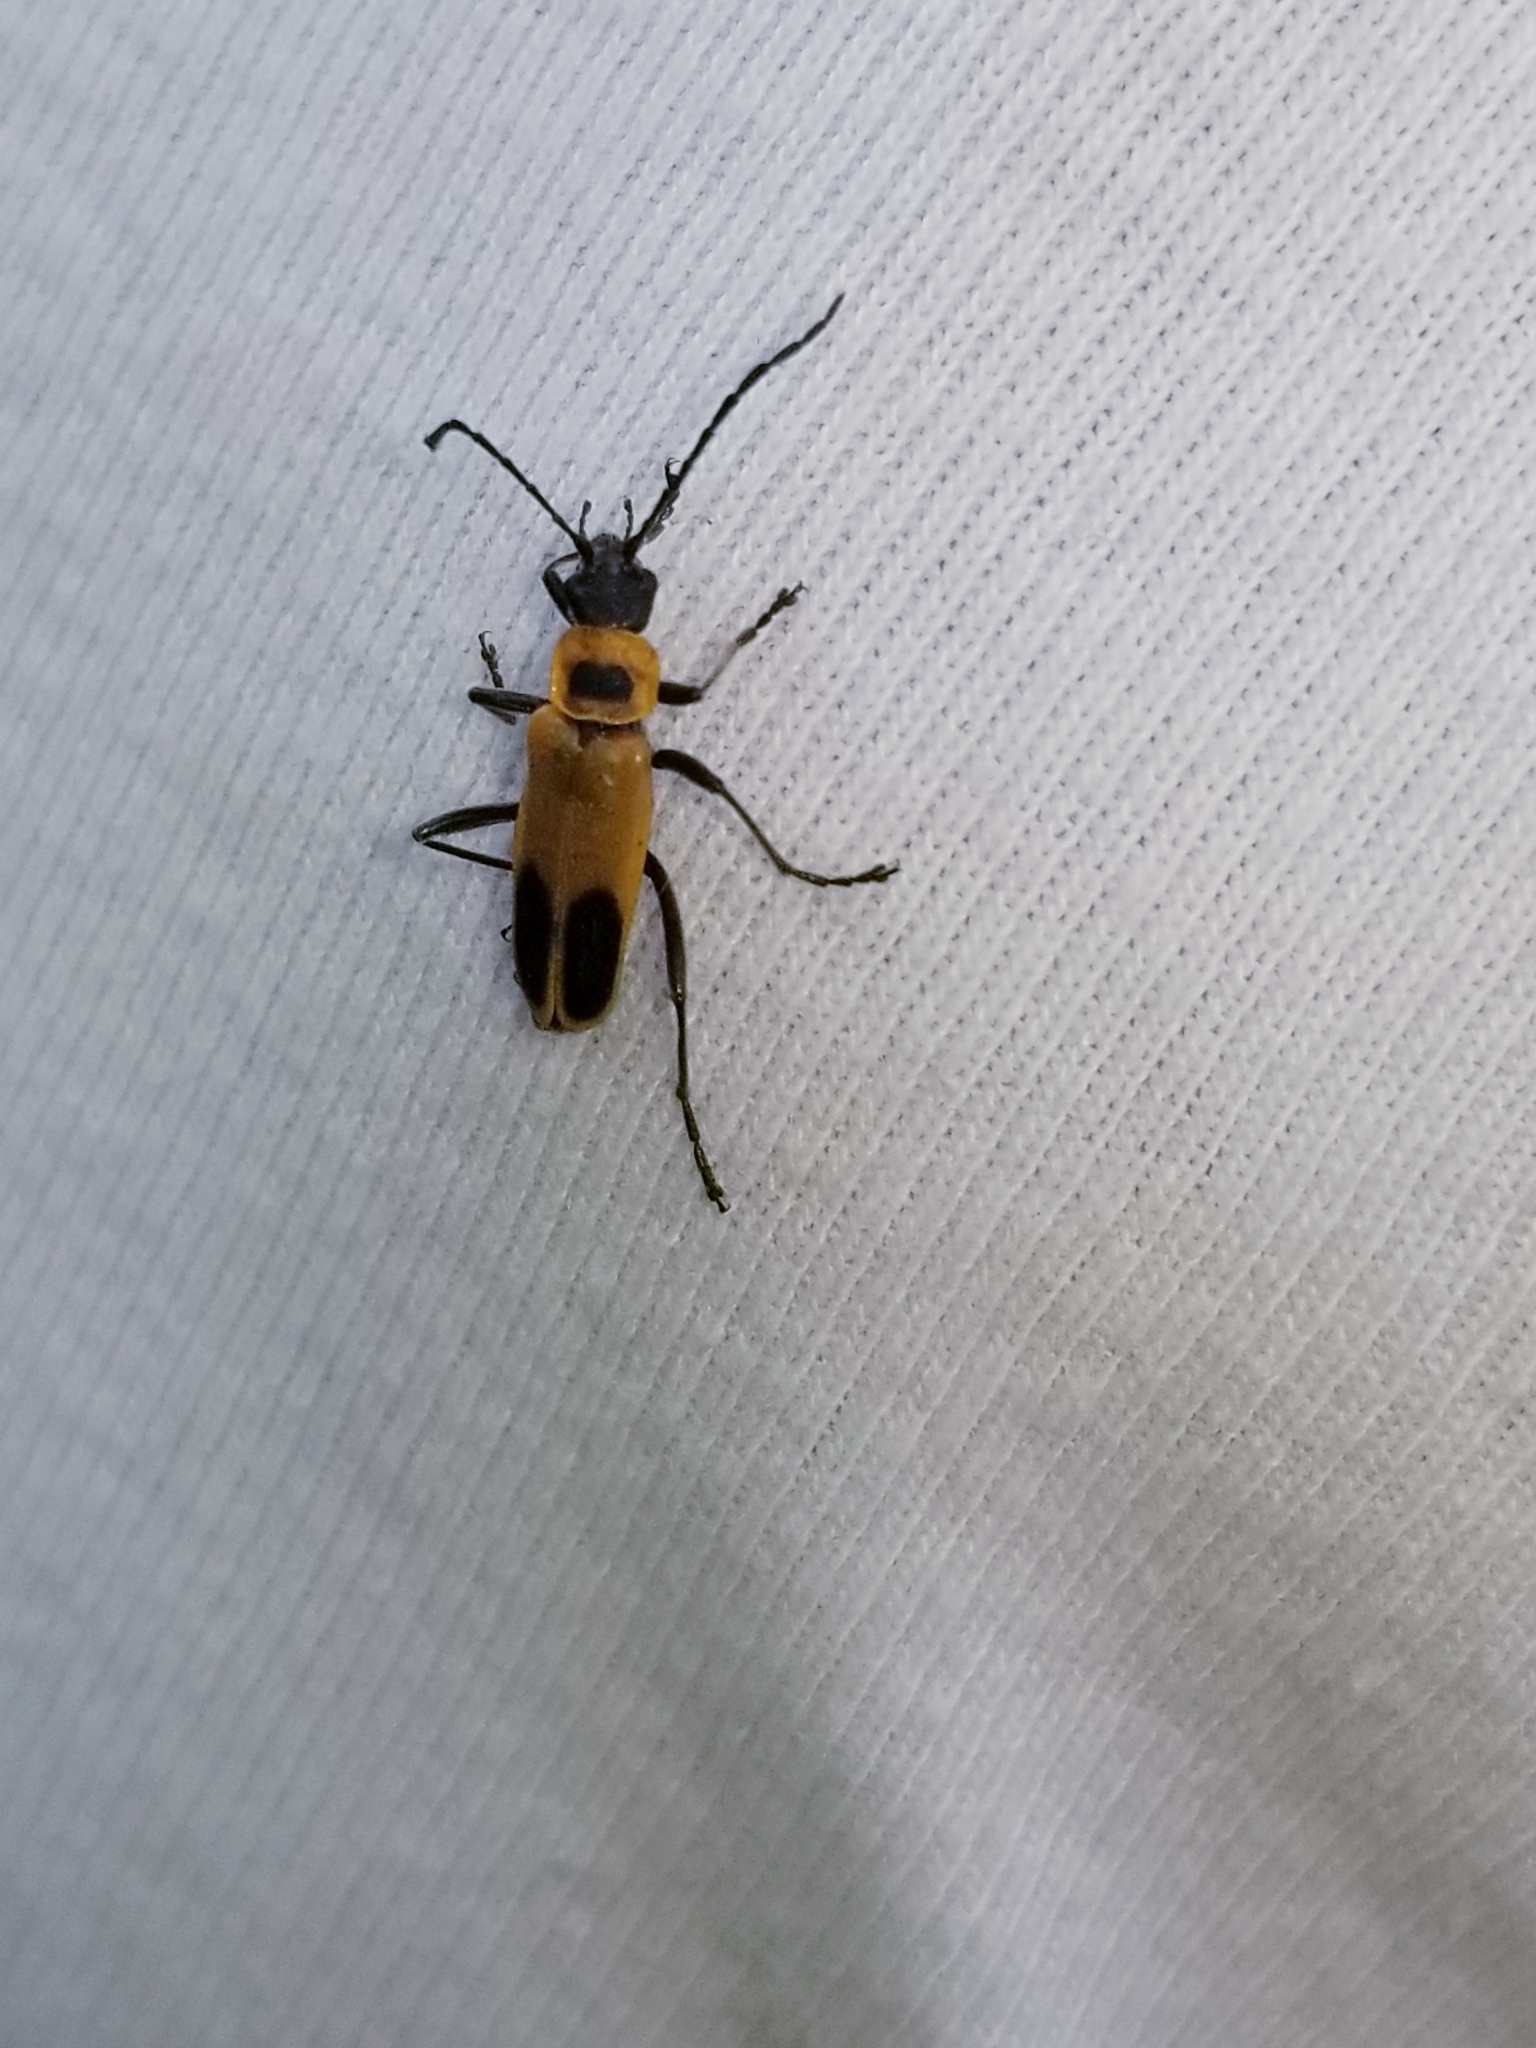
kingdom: Animalia
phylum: Arthropoda
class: Insecta
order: Coleoptera
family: Cantharidae
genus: Chauliognathus
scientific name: Chauliognathus pensylvanicus
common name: Goldenrod soldier beetle
